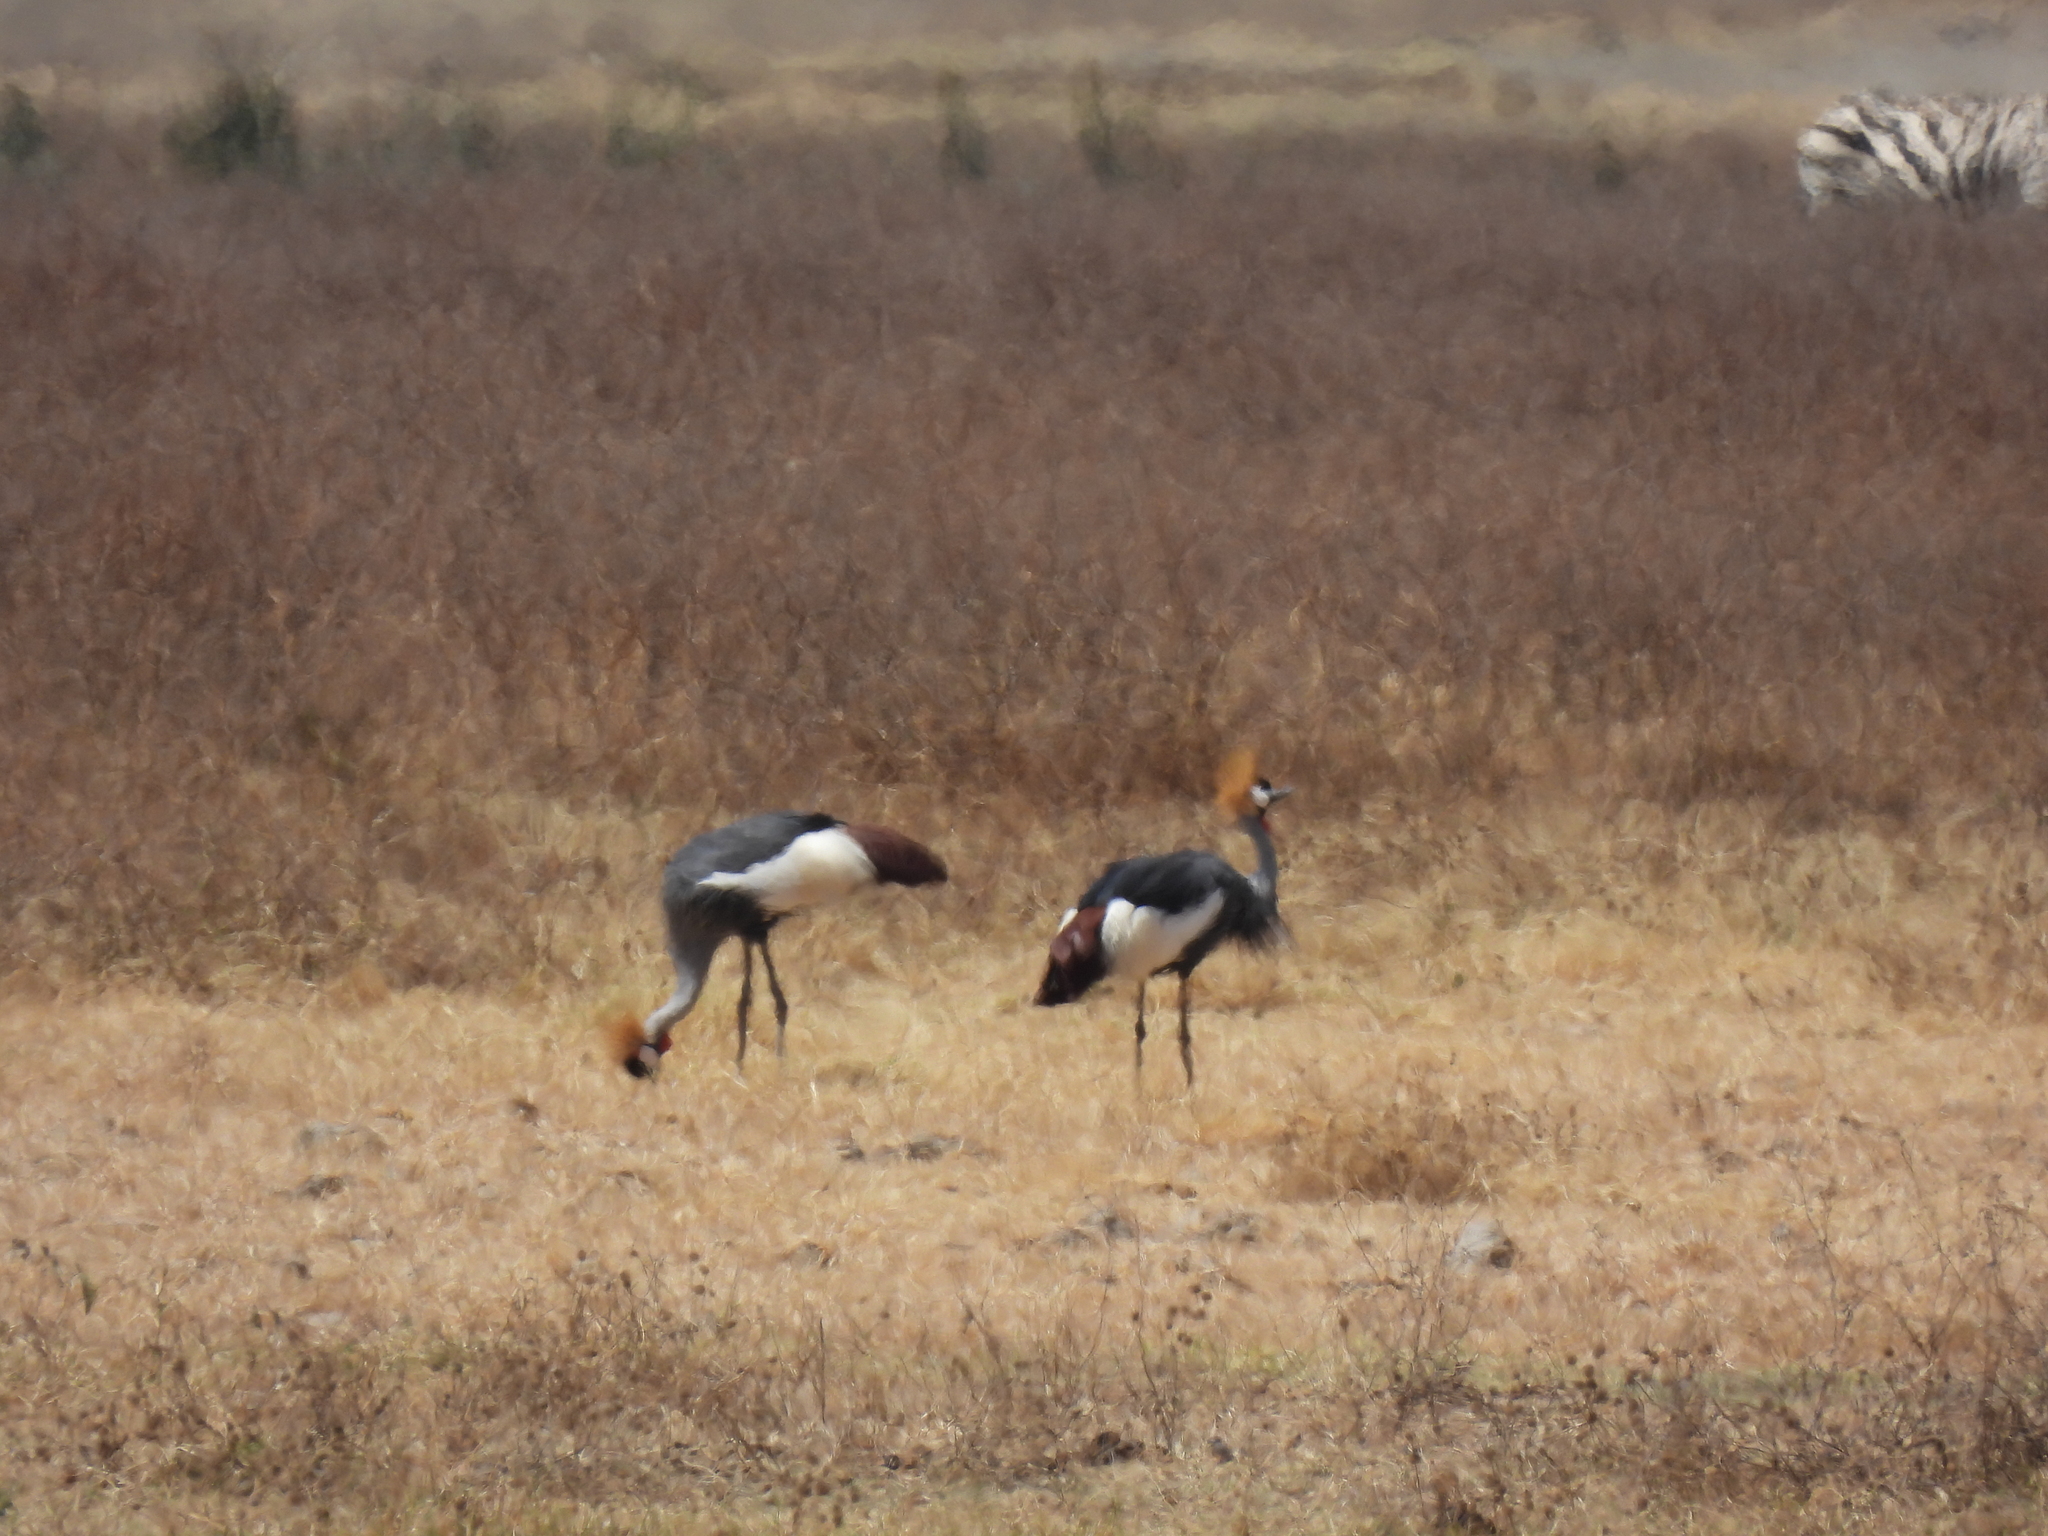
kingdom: Animalia
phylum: Chordata
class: Aves
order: Gruiformes
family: Gruidae
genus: Balearica
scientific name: Balearica regulorum
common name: Grey crowned crane
